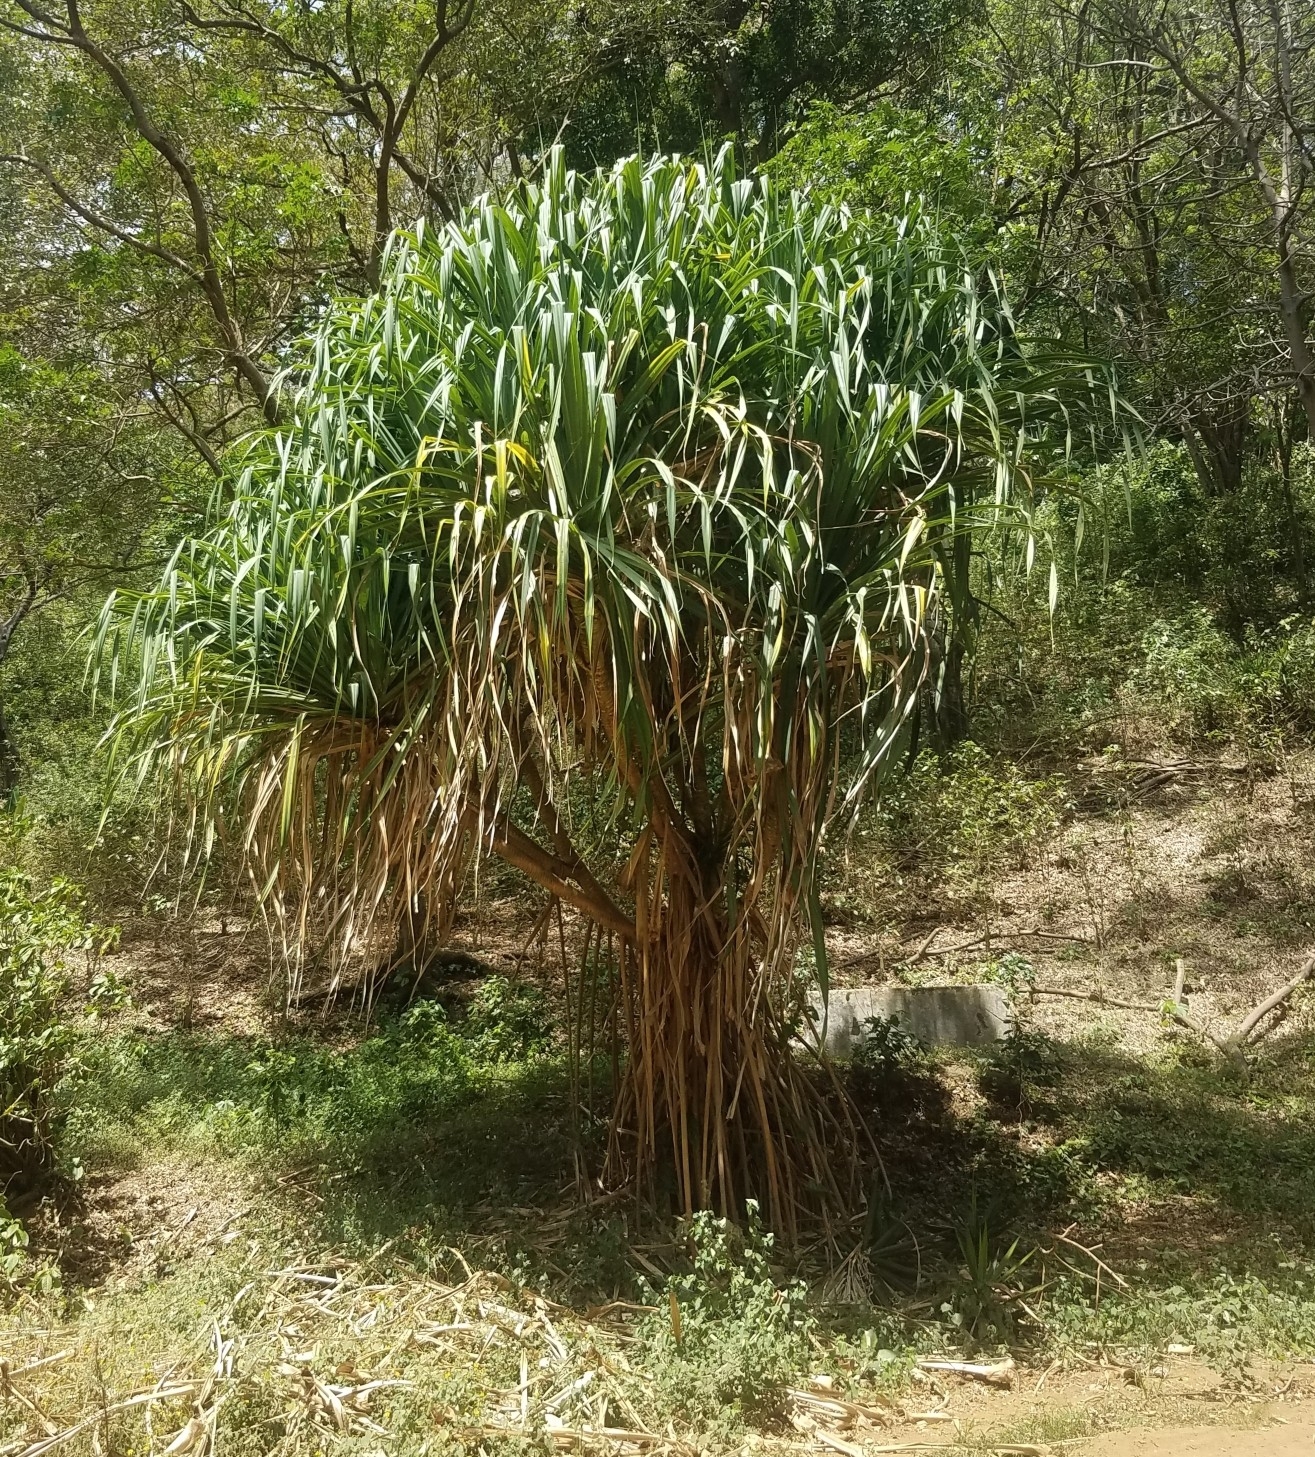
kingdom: Plantae
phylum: Tracheophyta
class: Liliopsida
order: Pandanales
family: Pandanaceae
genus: Pandanus
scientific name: Pandanus tectorius
